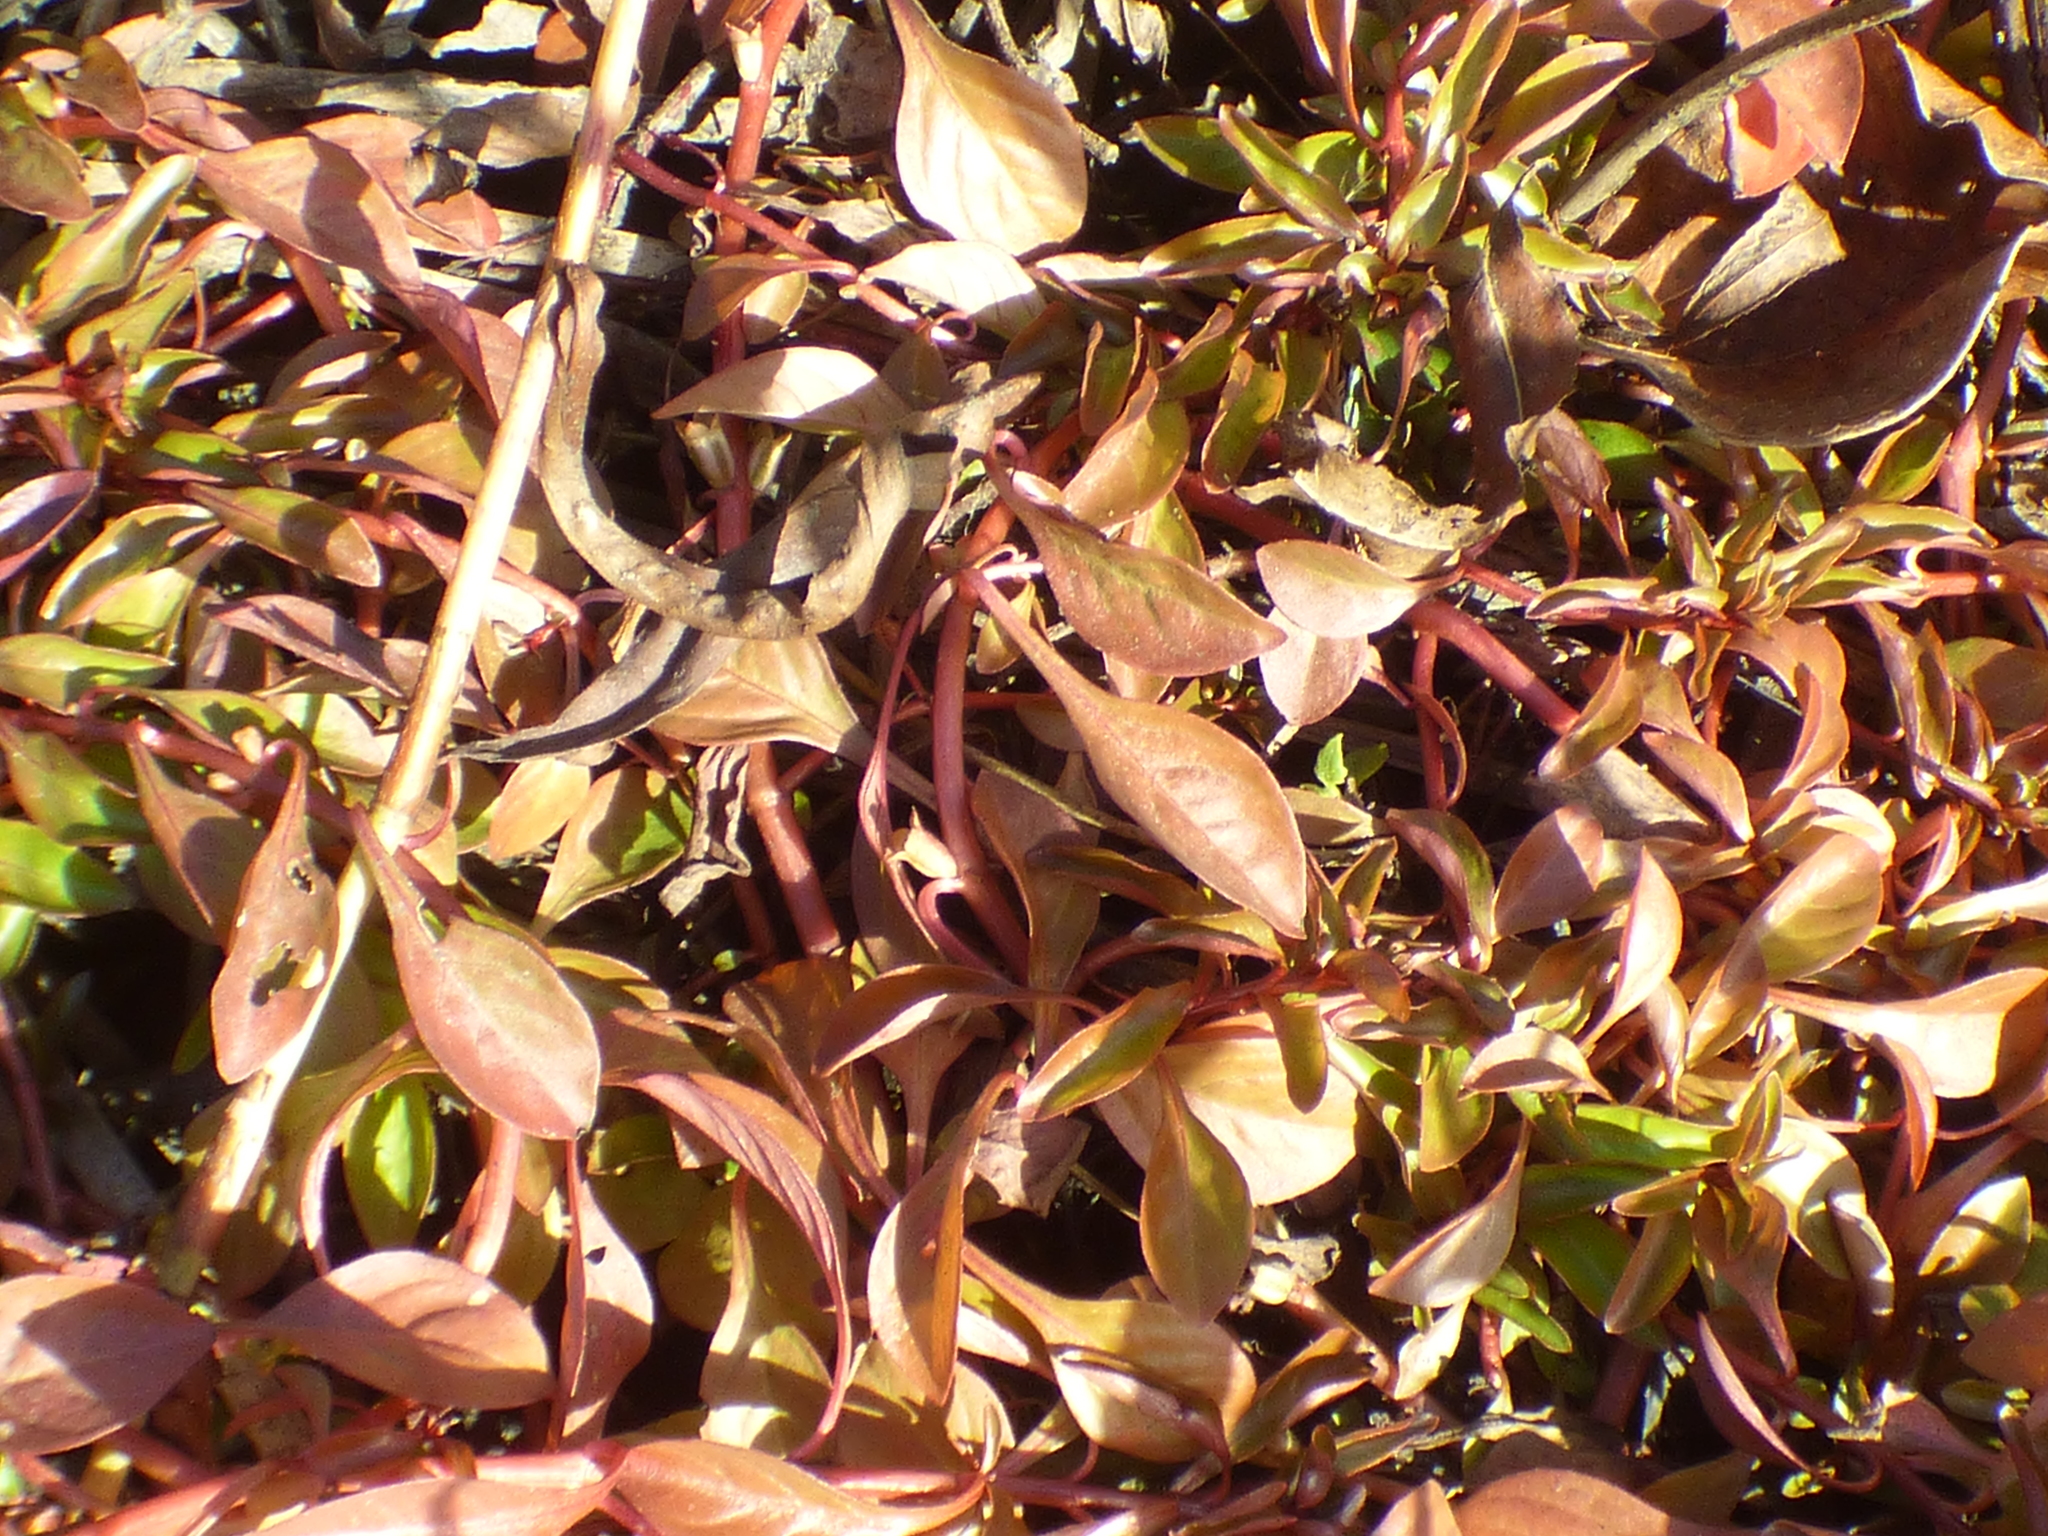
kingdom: Plantae
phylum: Tracheophyta
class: Magnoliopsida
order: Myrtales
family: Onagraceae
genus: Ludwigia
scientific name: Ludwigia palustris
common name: Hampshire-purslane
